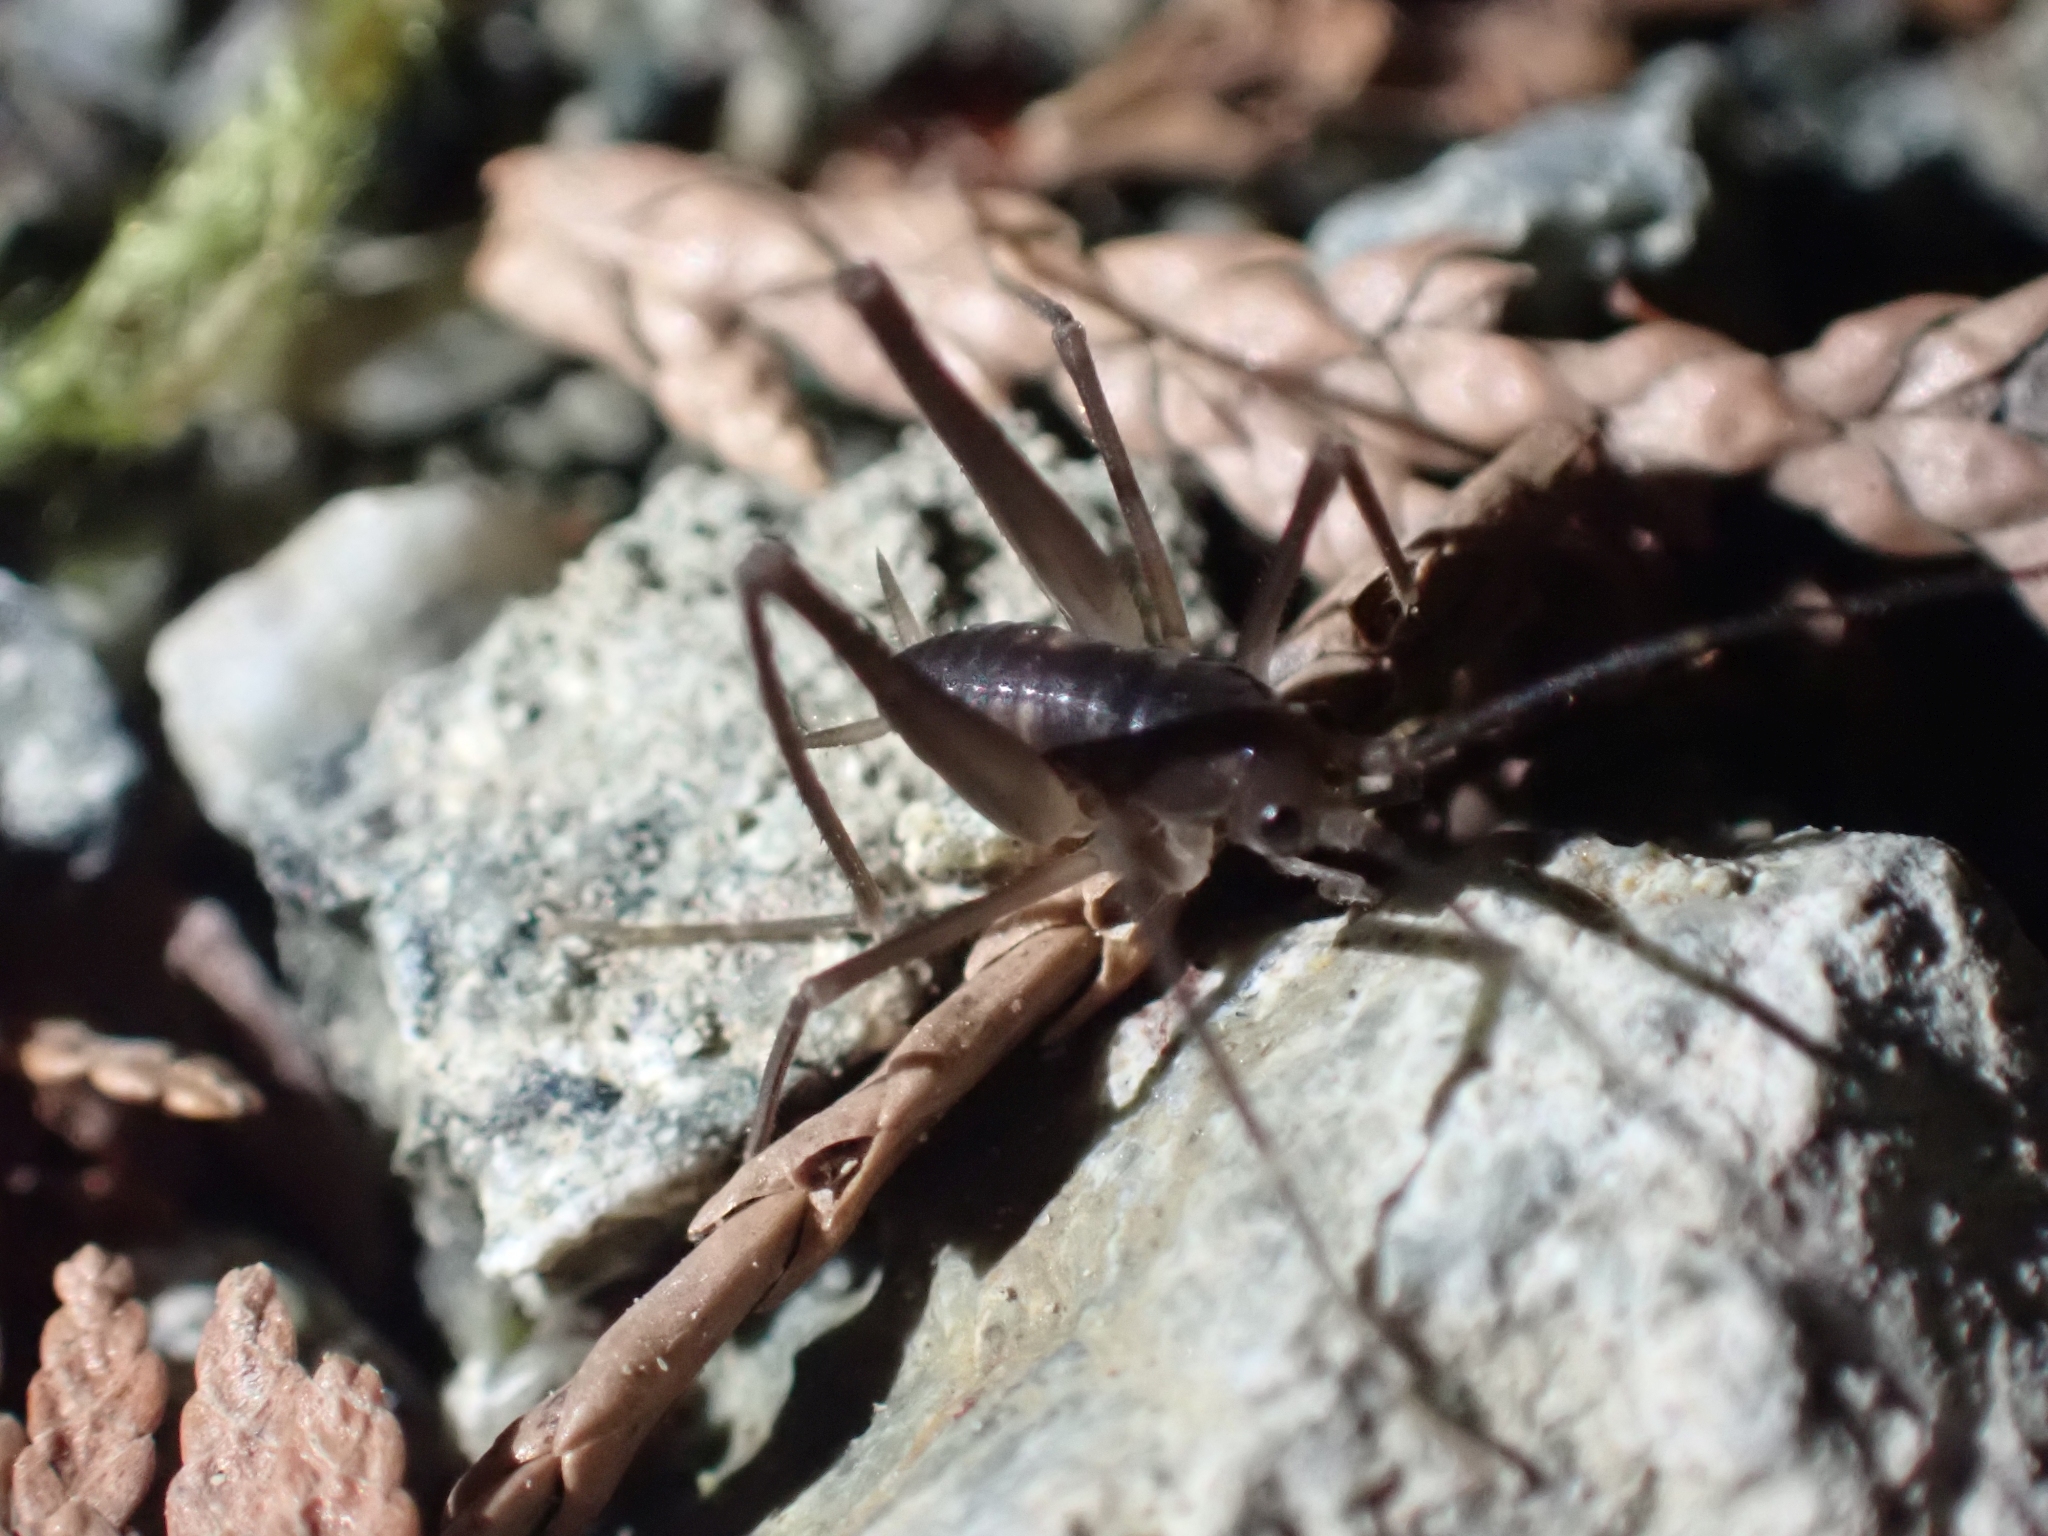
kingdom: Animalia
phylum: Arthropoda
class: Insecta
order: Orthoptera
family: Rhaphidophoridae
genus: Tropidischia
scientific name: Tropidischia xanthostoma
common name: Square-legged camel cricket
